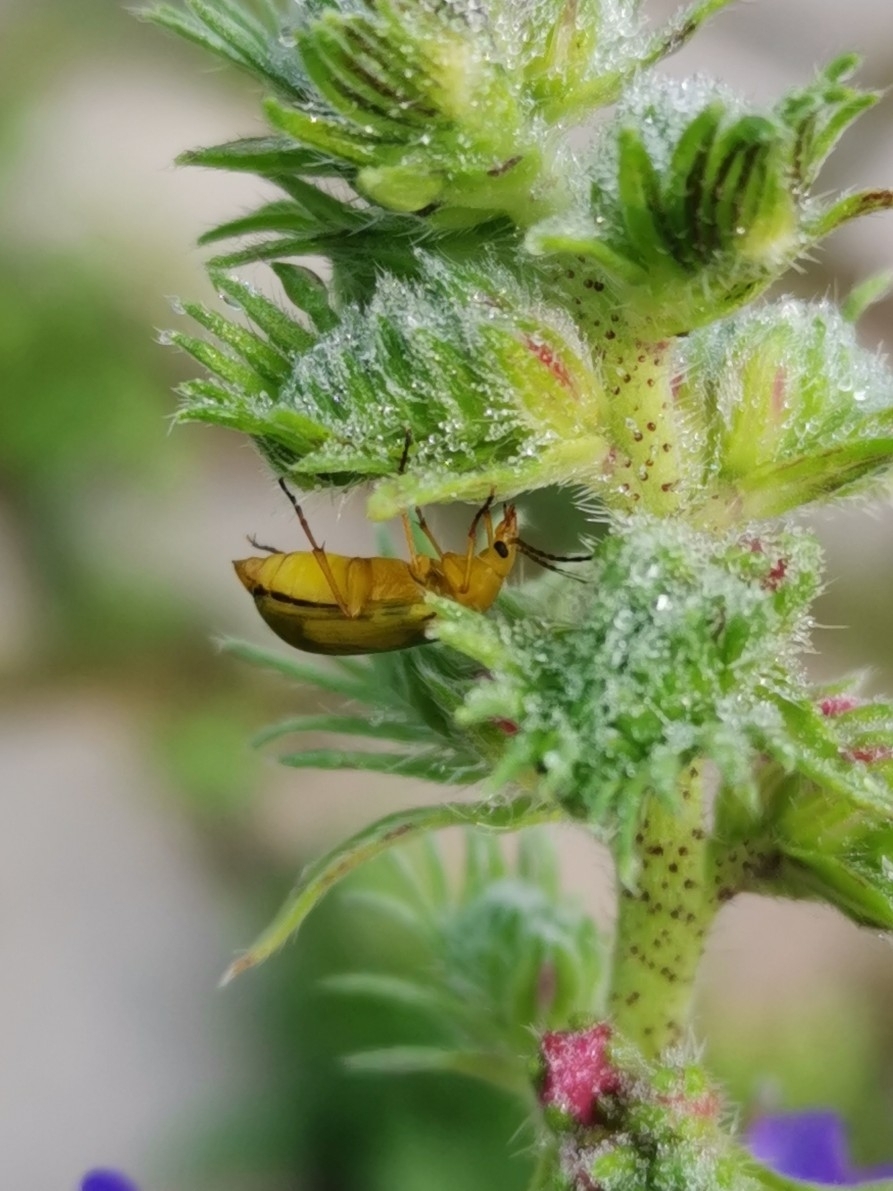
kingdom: Animalia
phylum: Arthropoda
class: Insecta
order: Coleoptera
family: Tenebrionidae
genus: Cteniopus
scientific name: Cteniopus sulphureus
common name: Sulphur beetle
